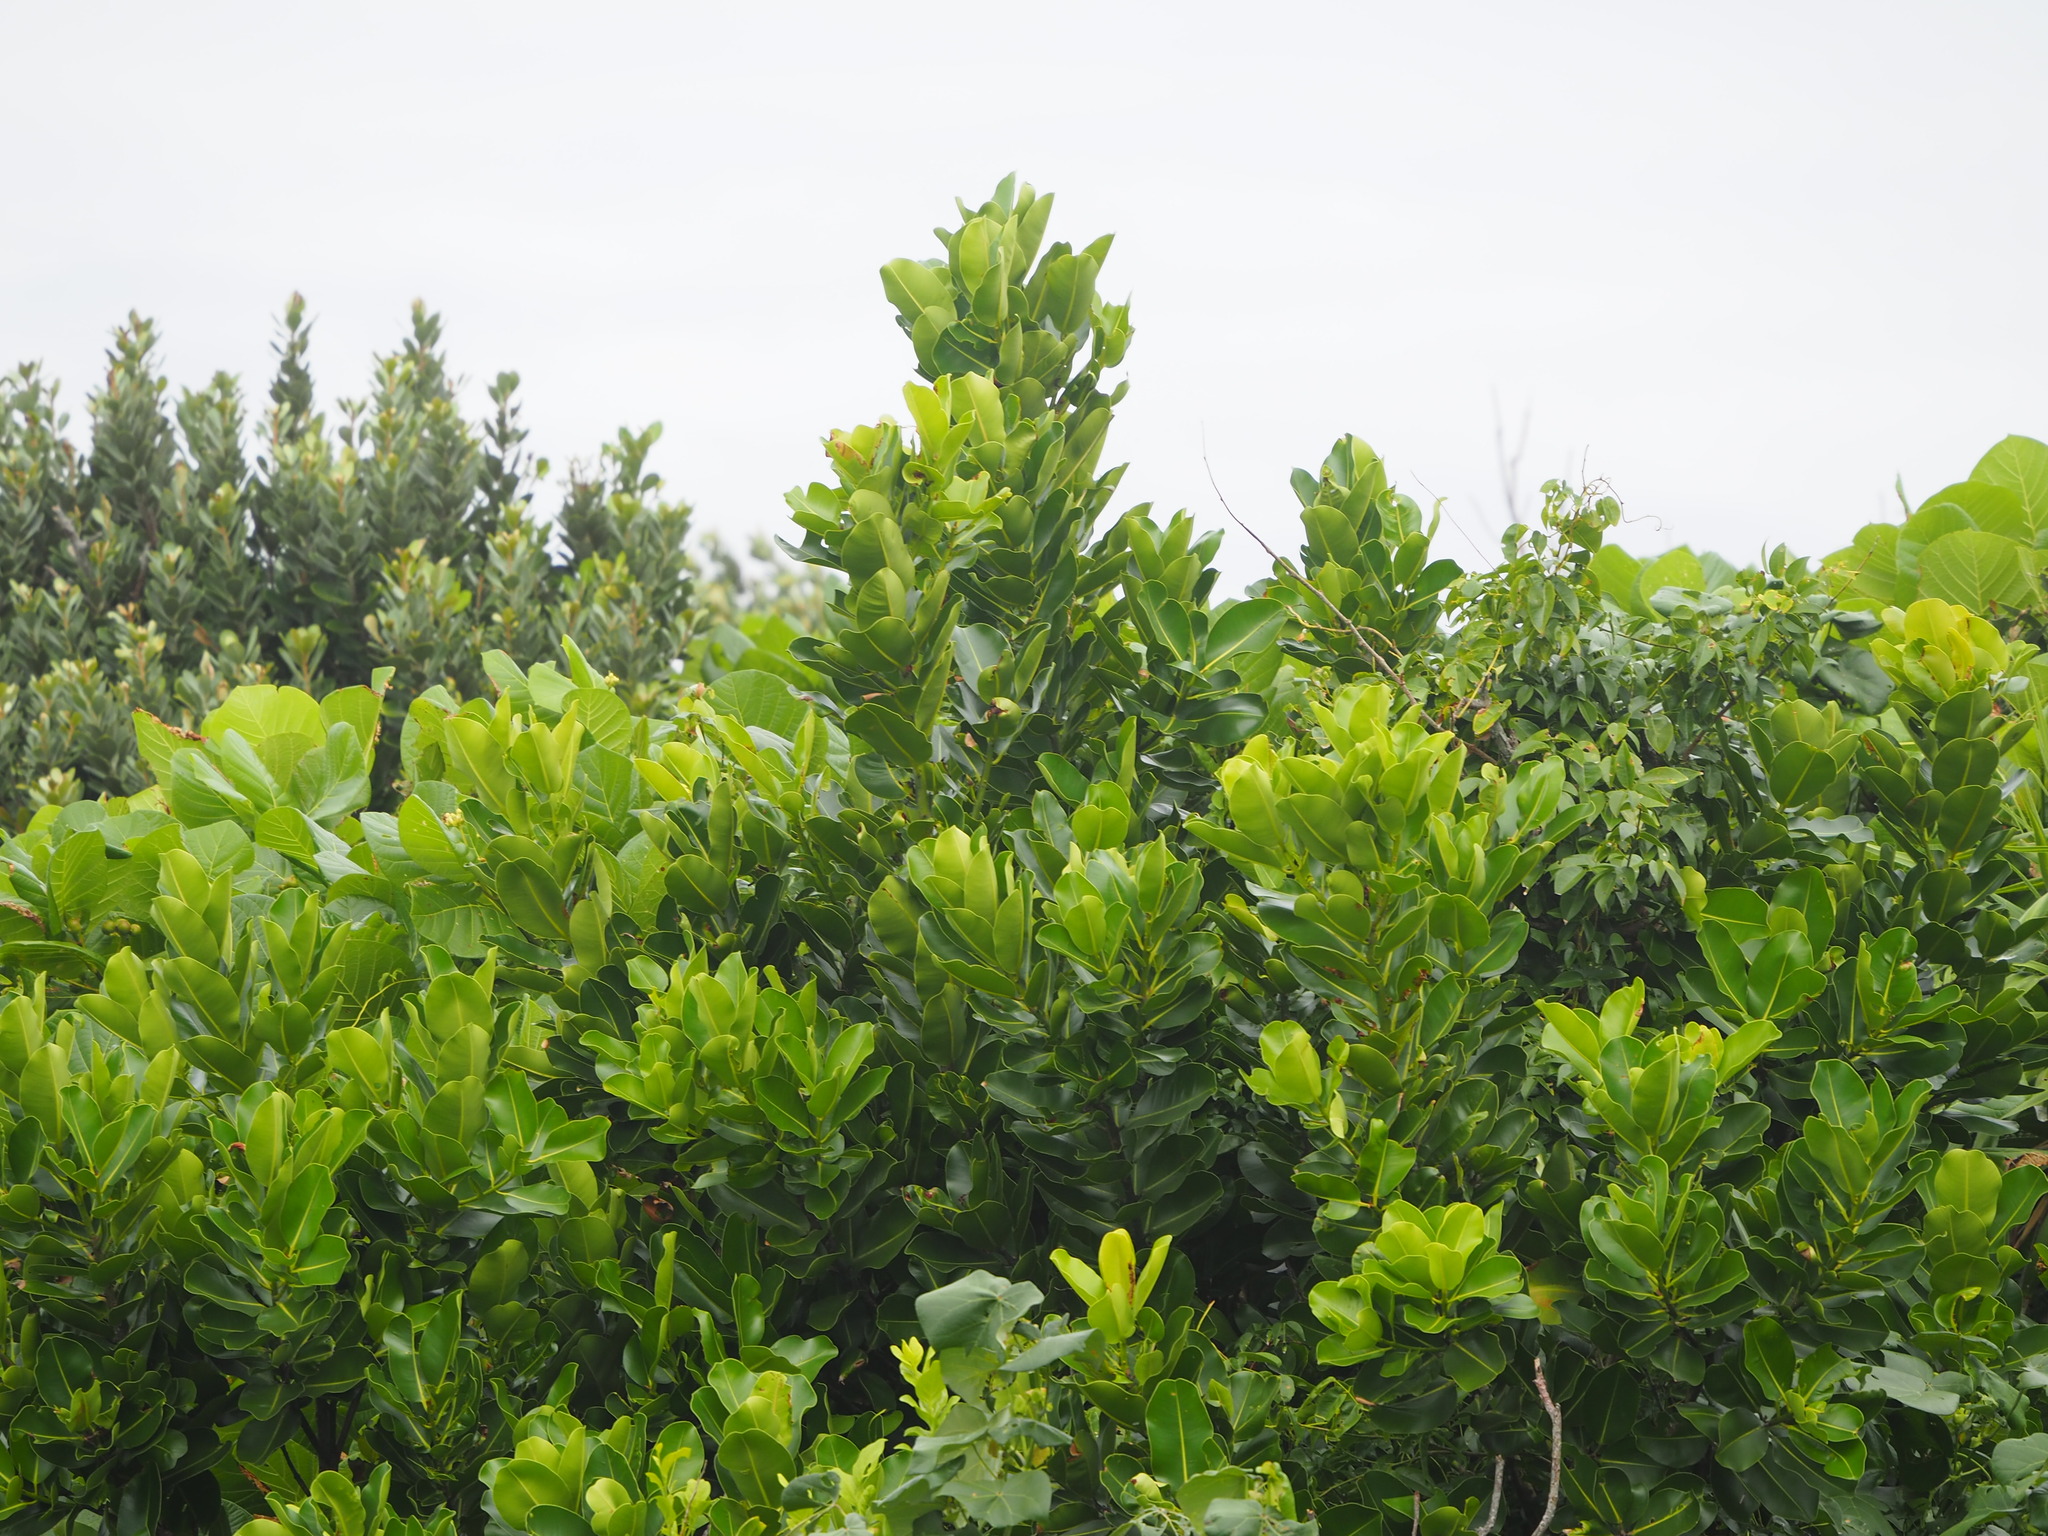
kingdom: Plantae
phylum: Tracheophyta
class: Magnoliopsida
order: Malpighiales
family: Calophyllaceae
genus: Calophyllum
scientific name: Calophyllum inophyllum
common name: Alexandrian laurel
